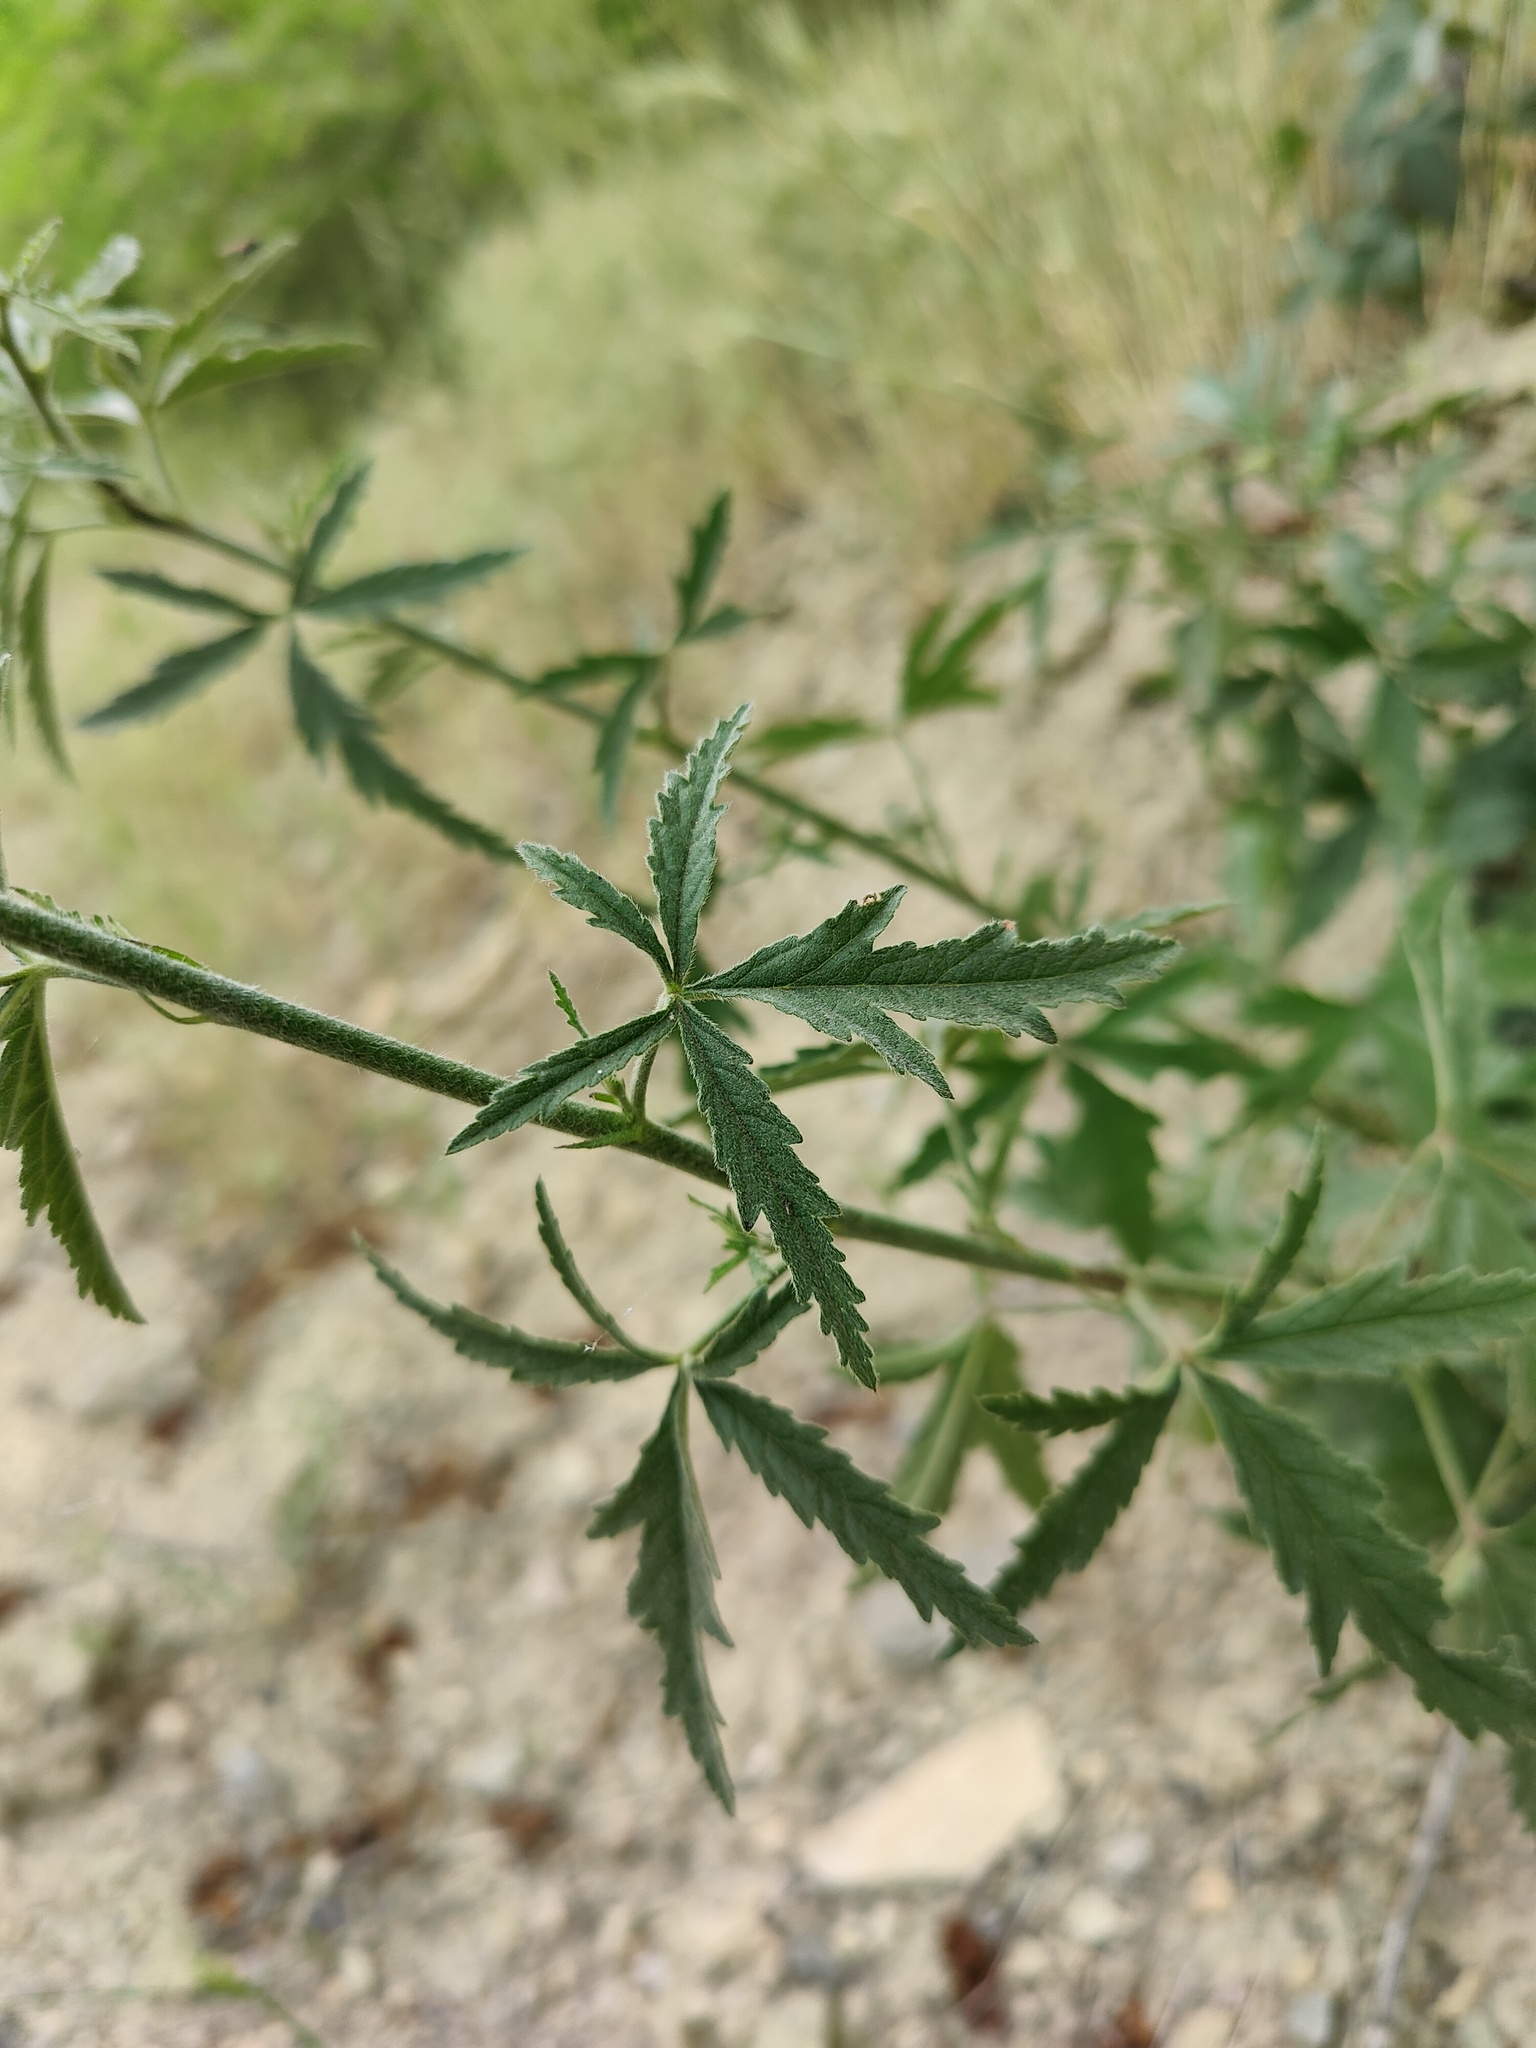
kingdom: Plantae
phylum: Tracheophyta
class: Magnoliopsida
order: Malvales
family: Malvaceae
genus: Althaea
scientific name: Althaea cannabina
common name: Palm-leaf marshmallow
